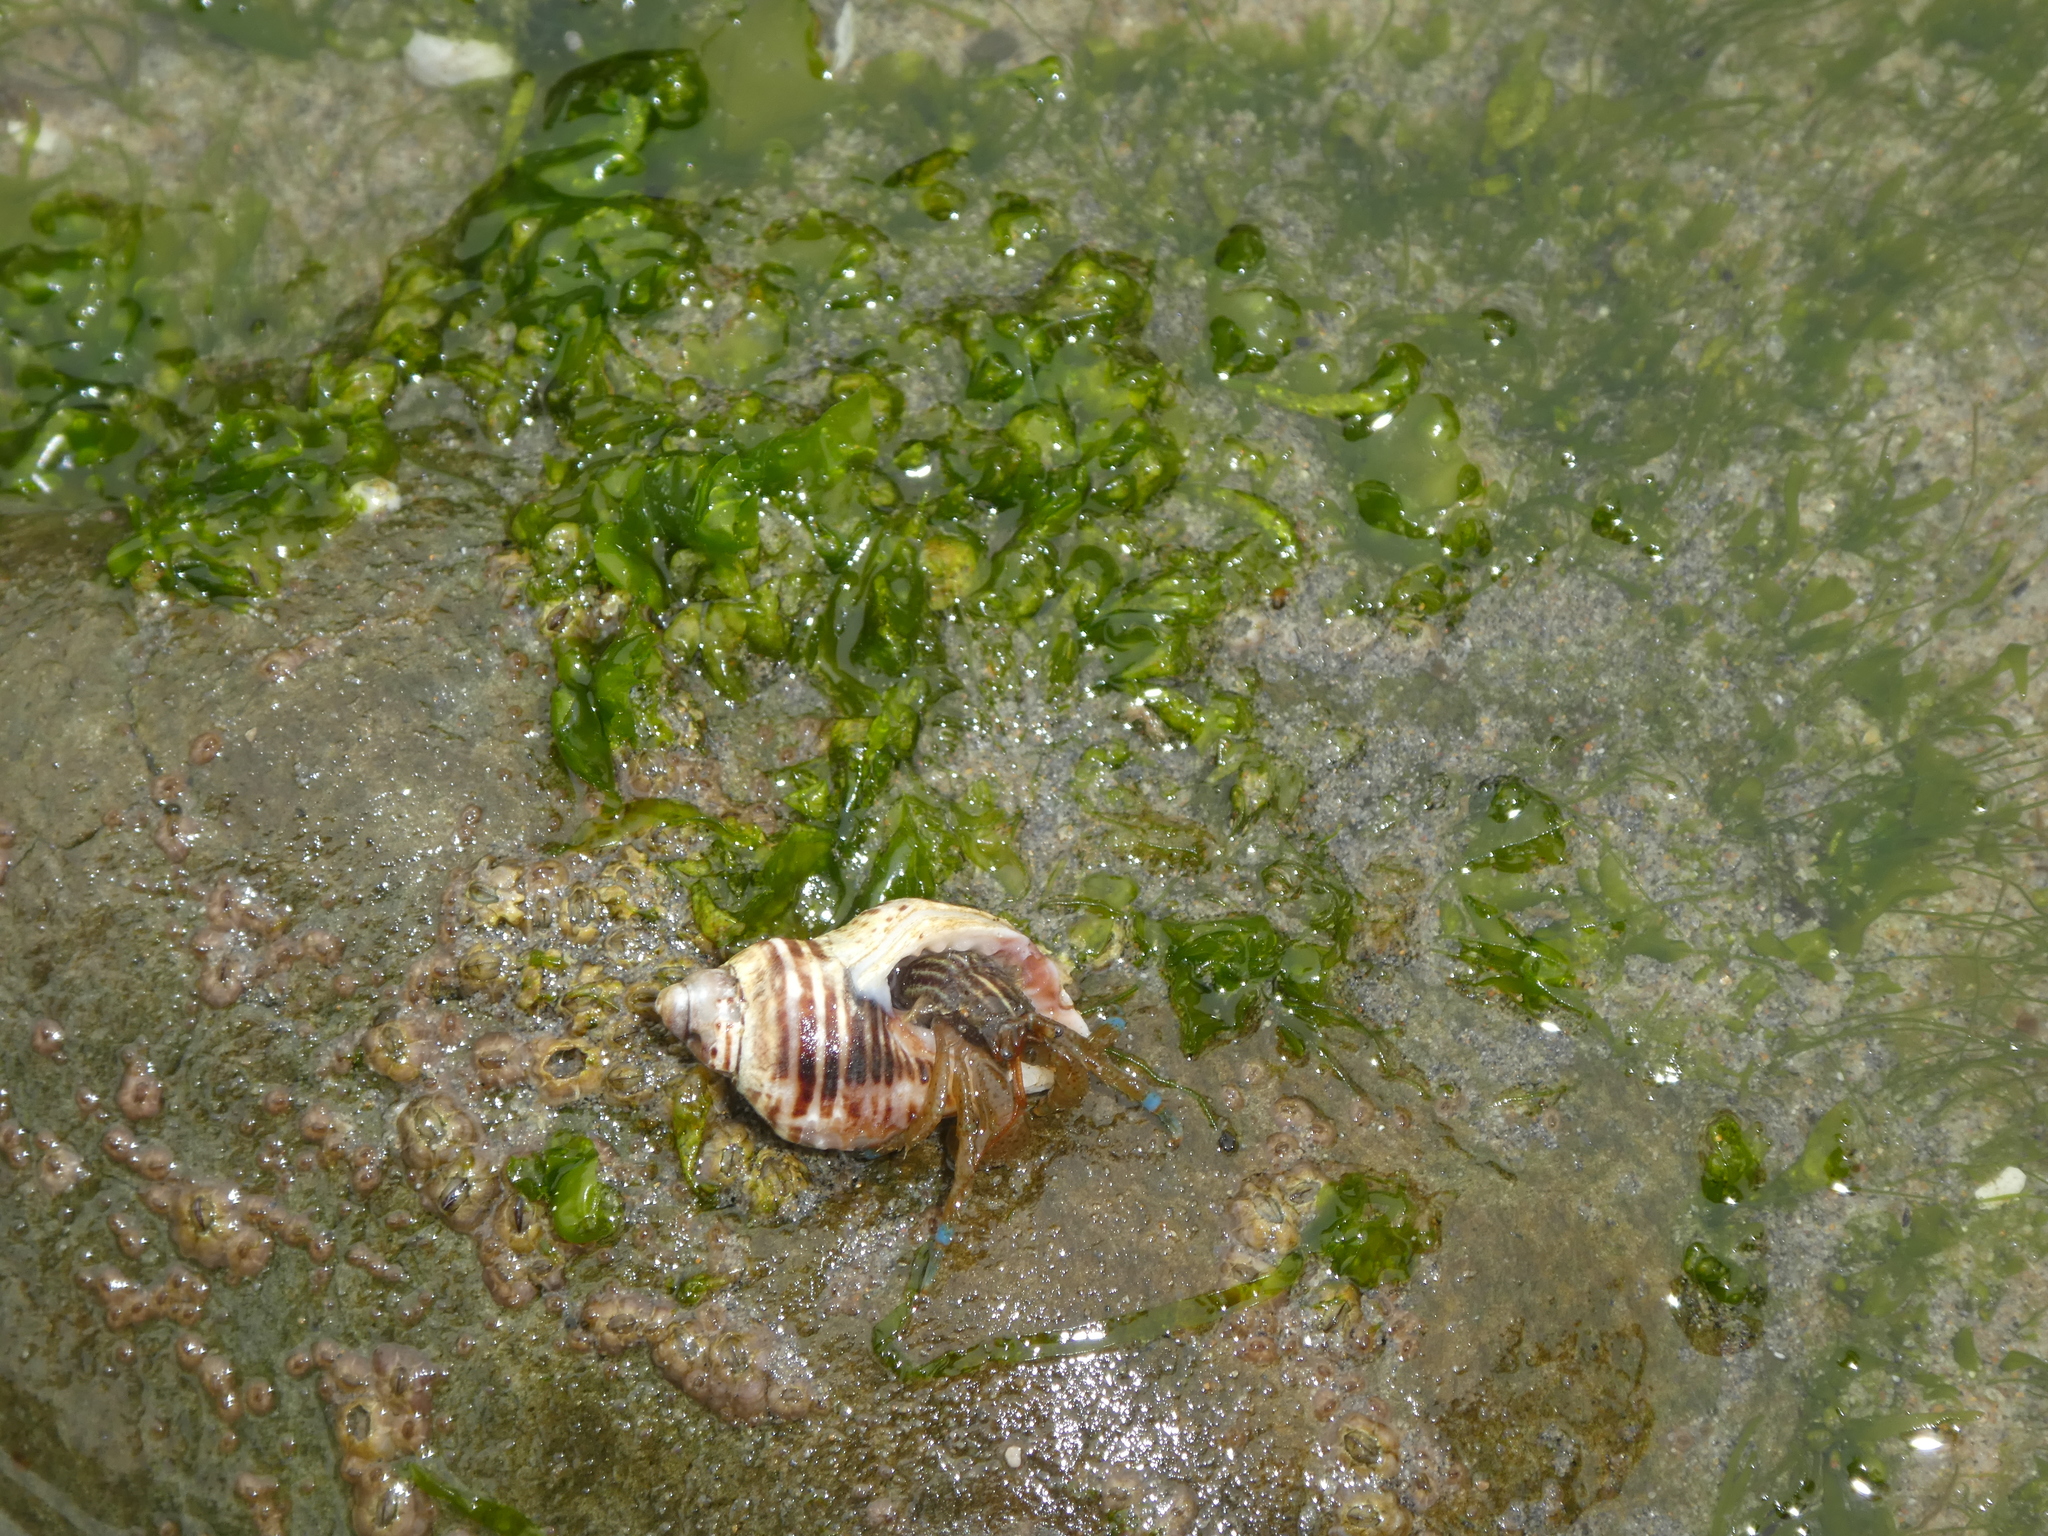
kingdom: Animalia
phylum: Arthropoda
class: Malacostraca
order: Decapoda
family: Paguridae
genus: Pagurus
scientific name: Pagurus samuelis
